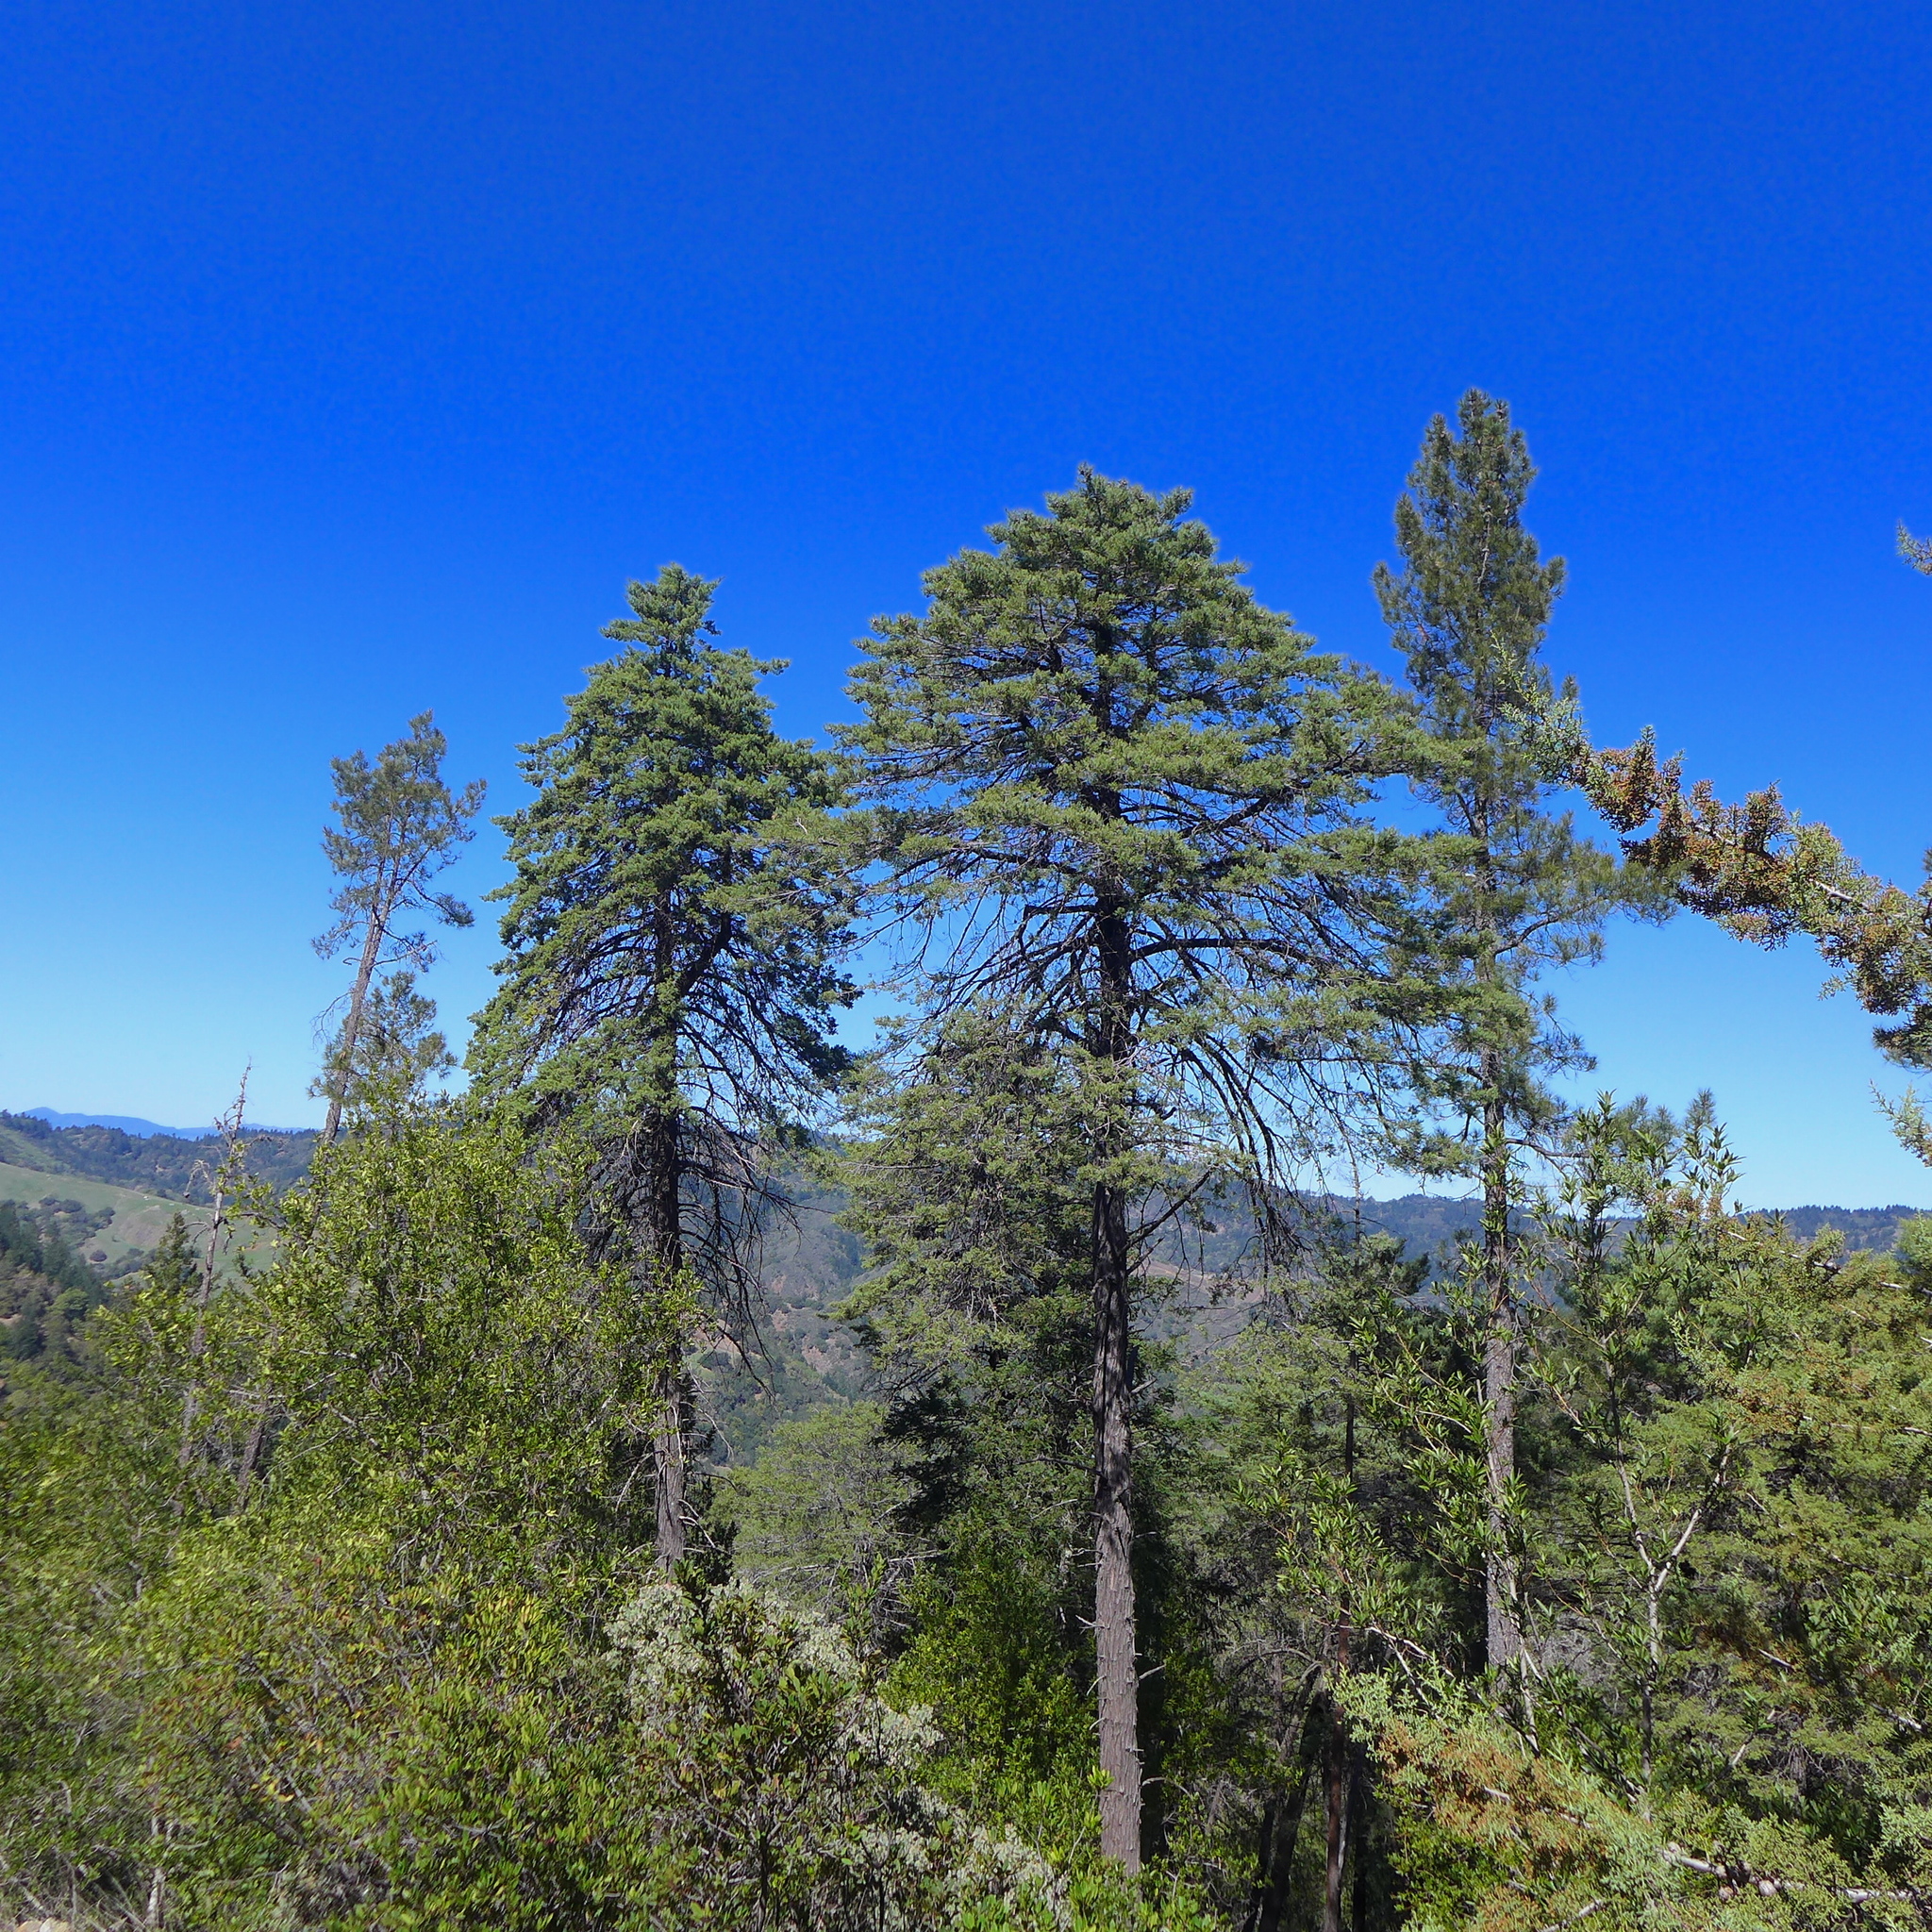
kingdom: Plantae
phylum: Tracheophyta
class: Pinopsida
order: Pinales
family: Cupressaceae
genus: Cupressus
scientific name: Cupressus sargentii
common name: Sargent cypress
